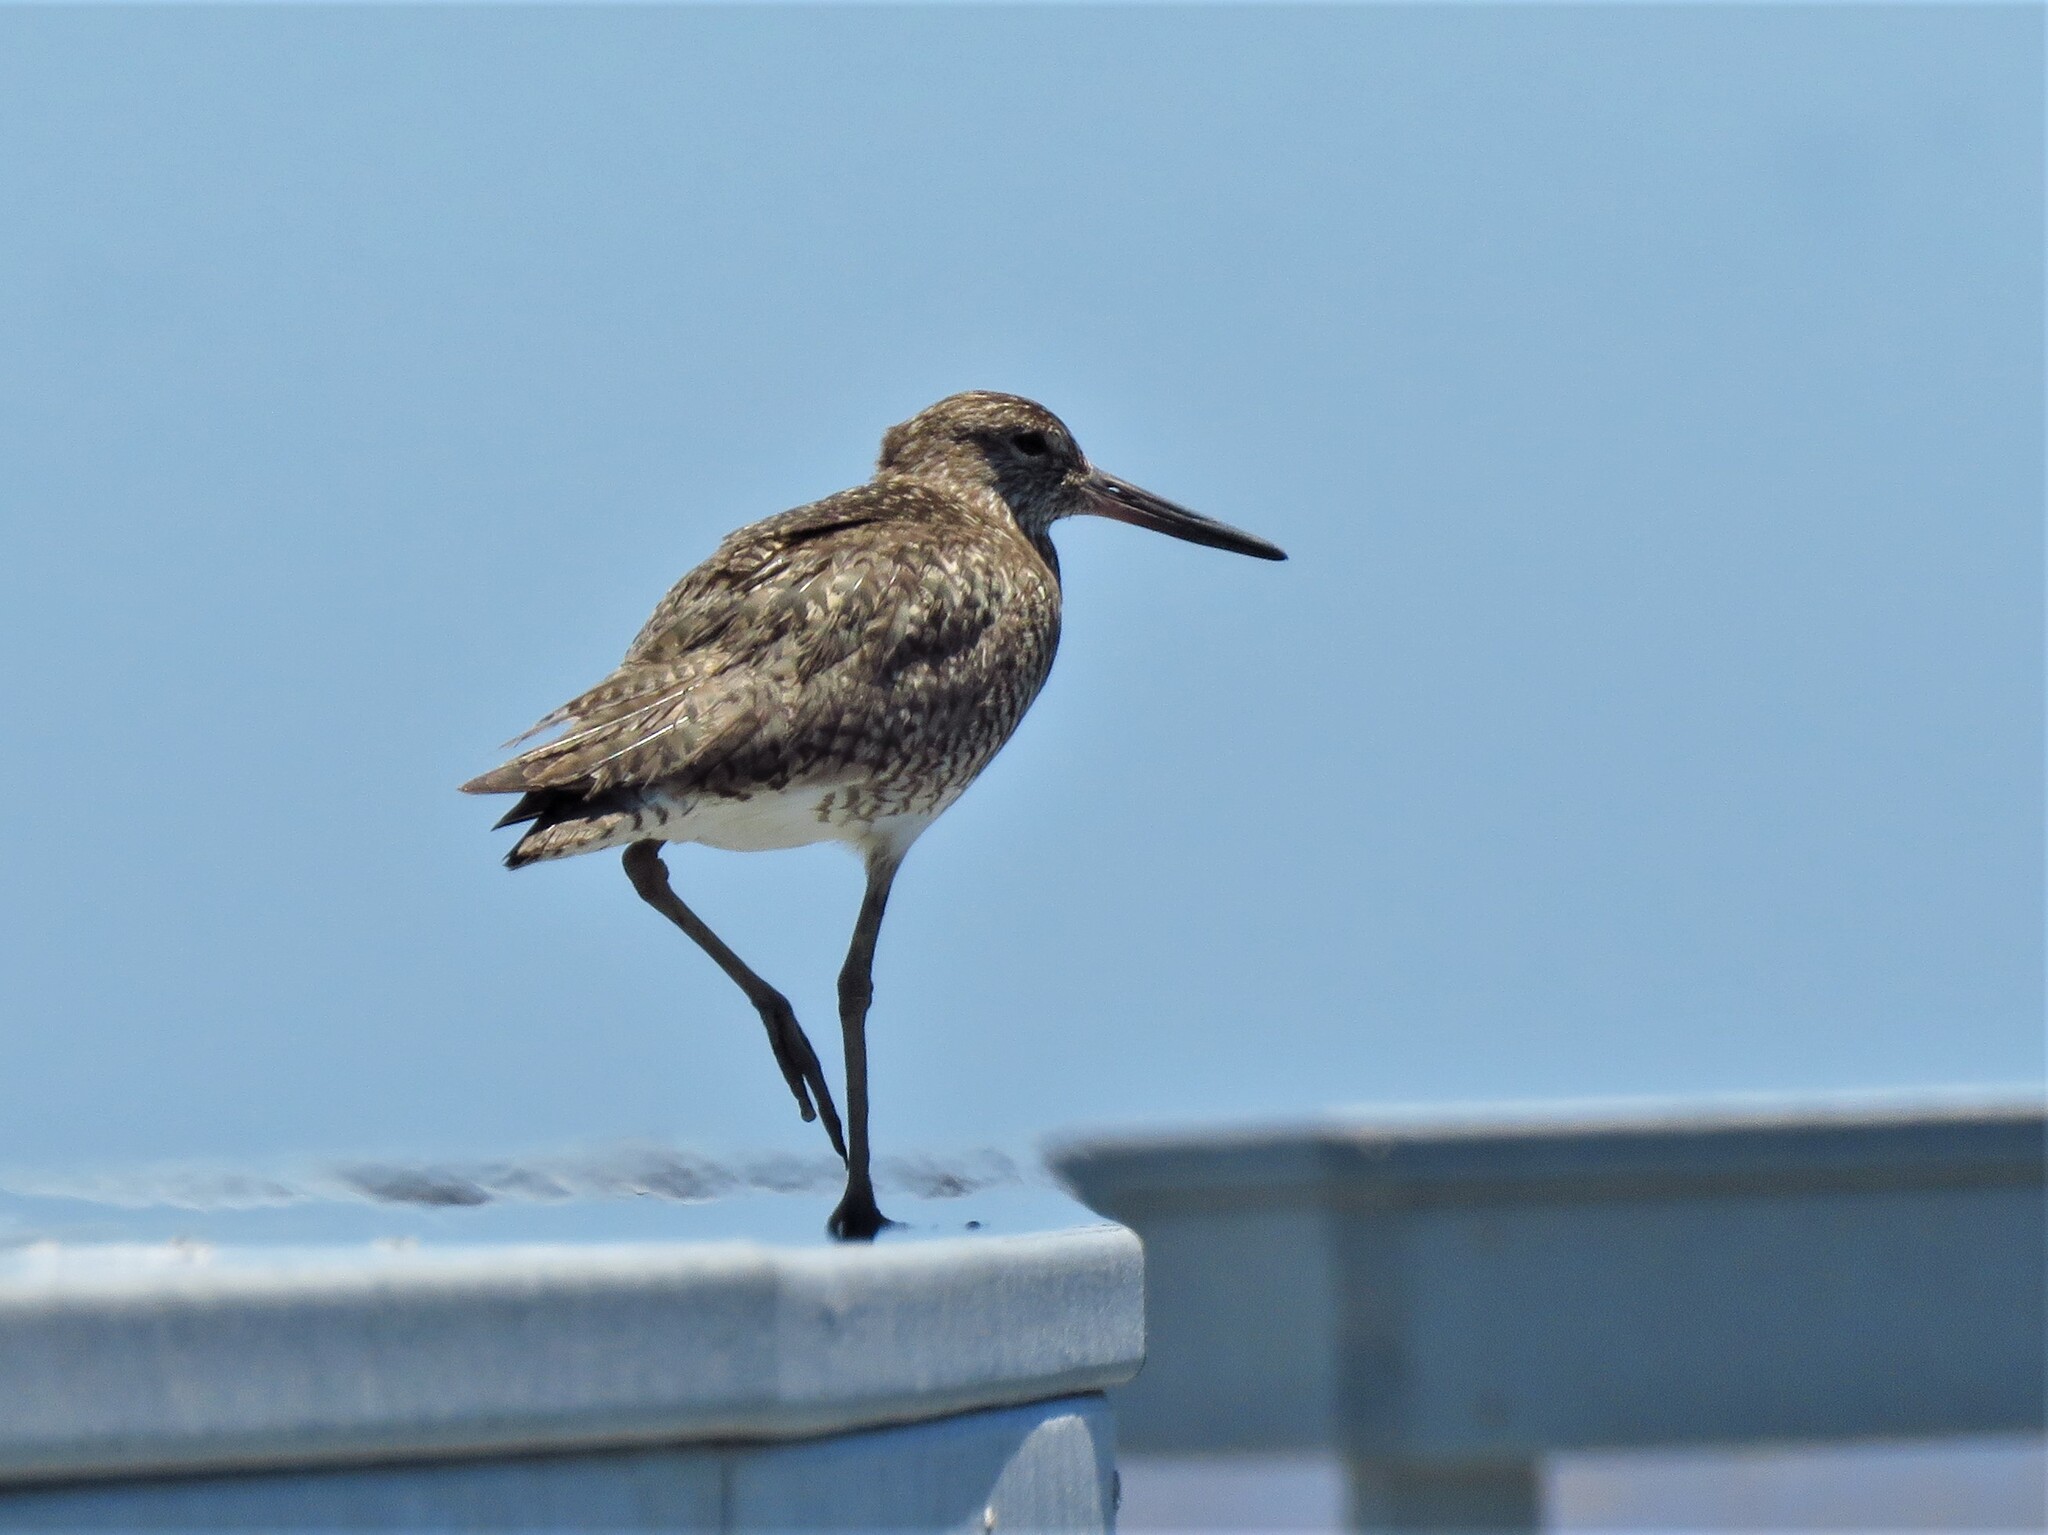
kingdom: Animalia
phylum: Chordata
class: Aves
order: Charadriiformes
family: Scolopacidae
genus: Tringa
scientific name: Tringa semipalmata
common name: Willet
